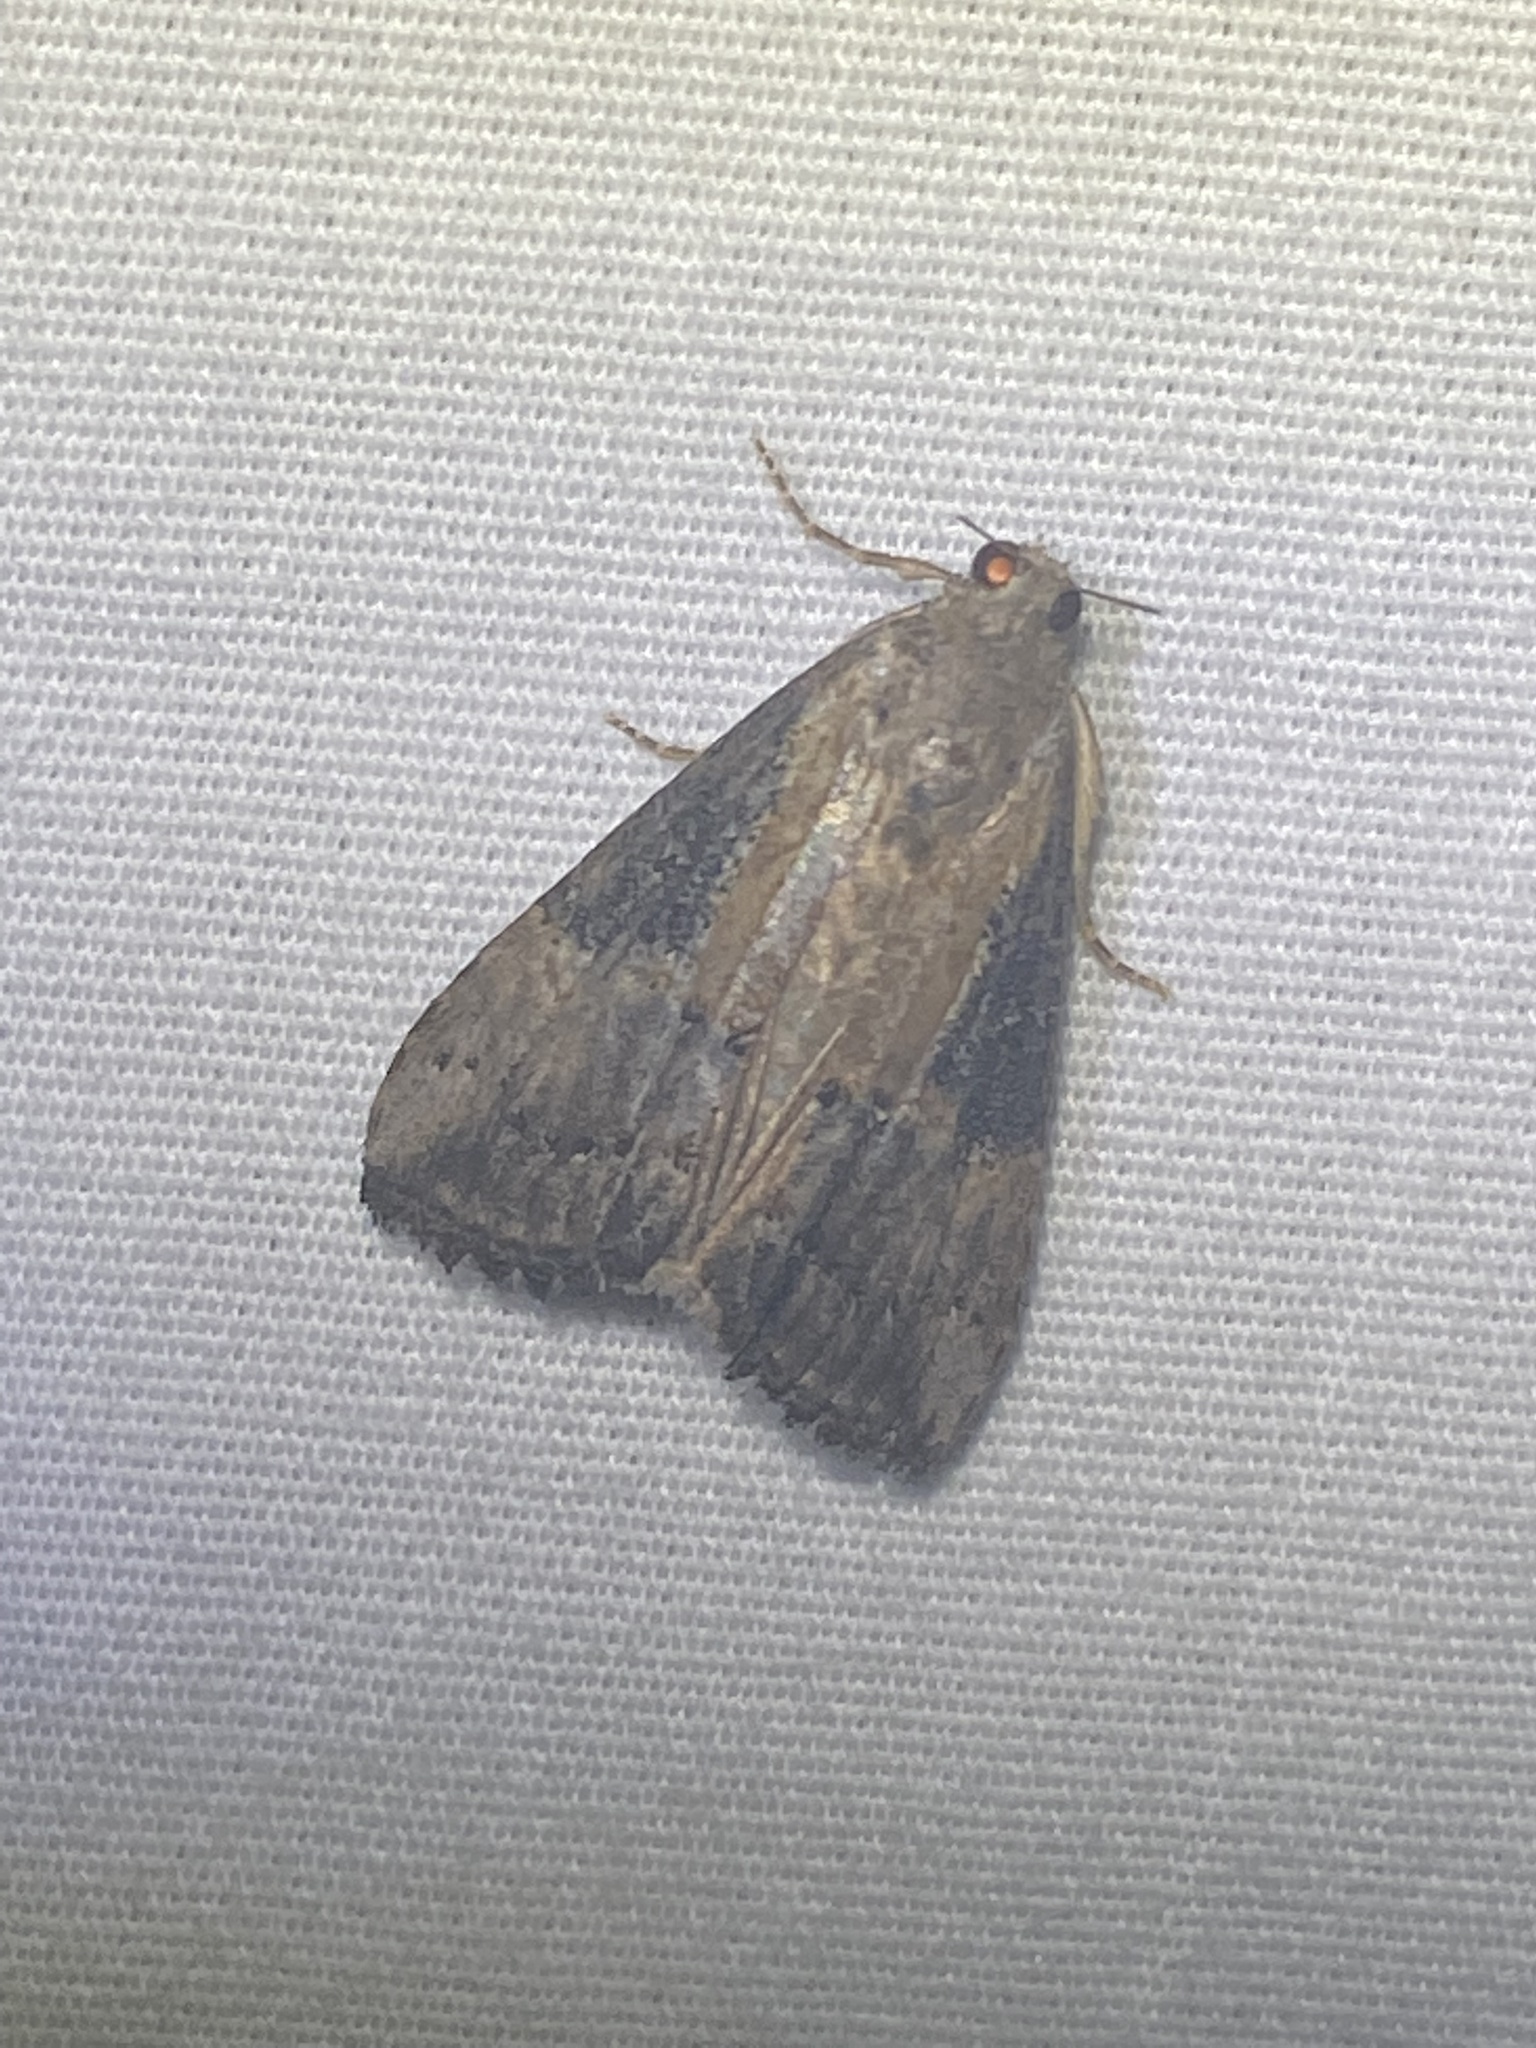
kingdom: Animalia
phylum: Arthropoda
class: Insecta
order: Lepidoptera
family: Erebidae
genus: Hypena
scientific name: Hypena scabra
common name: Green cloverworm
